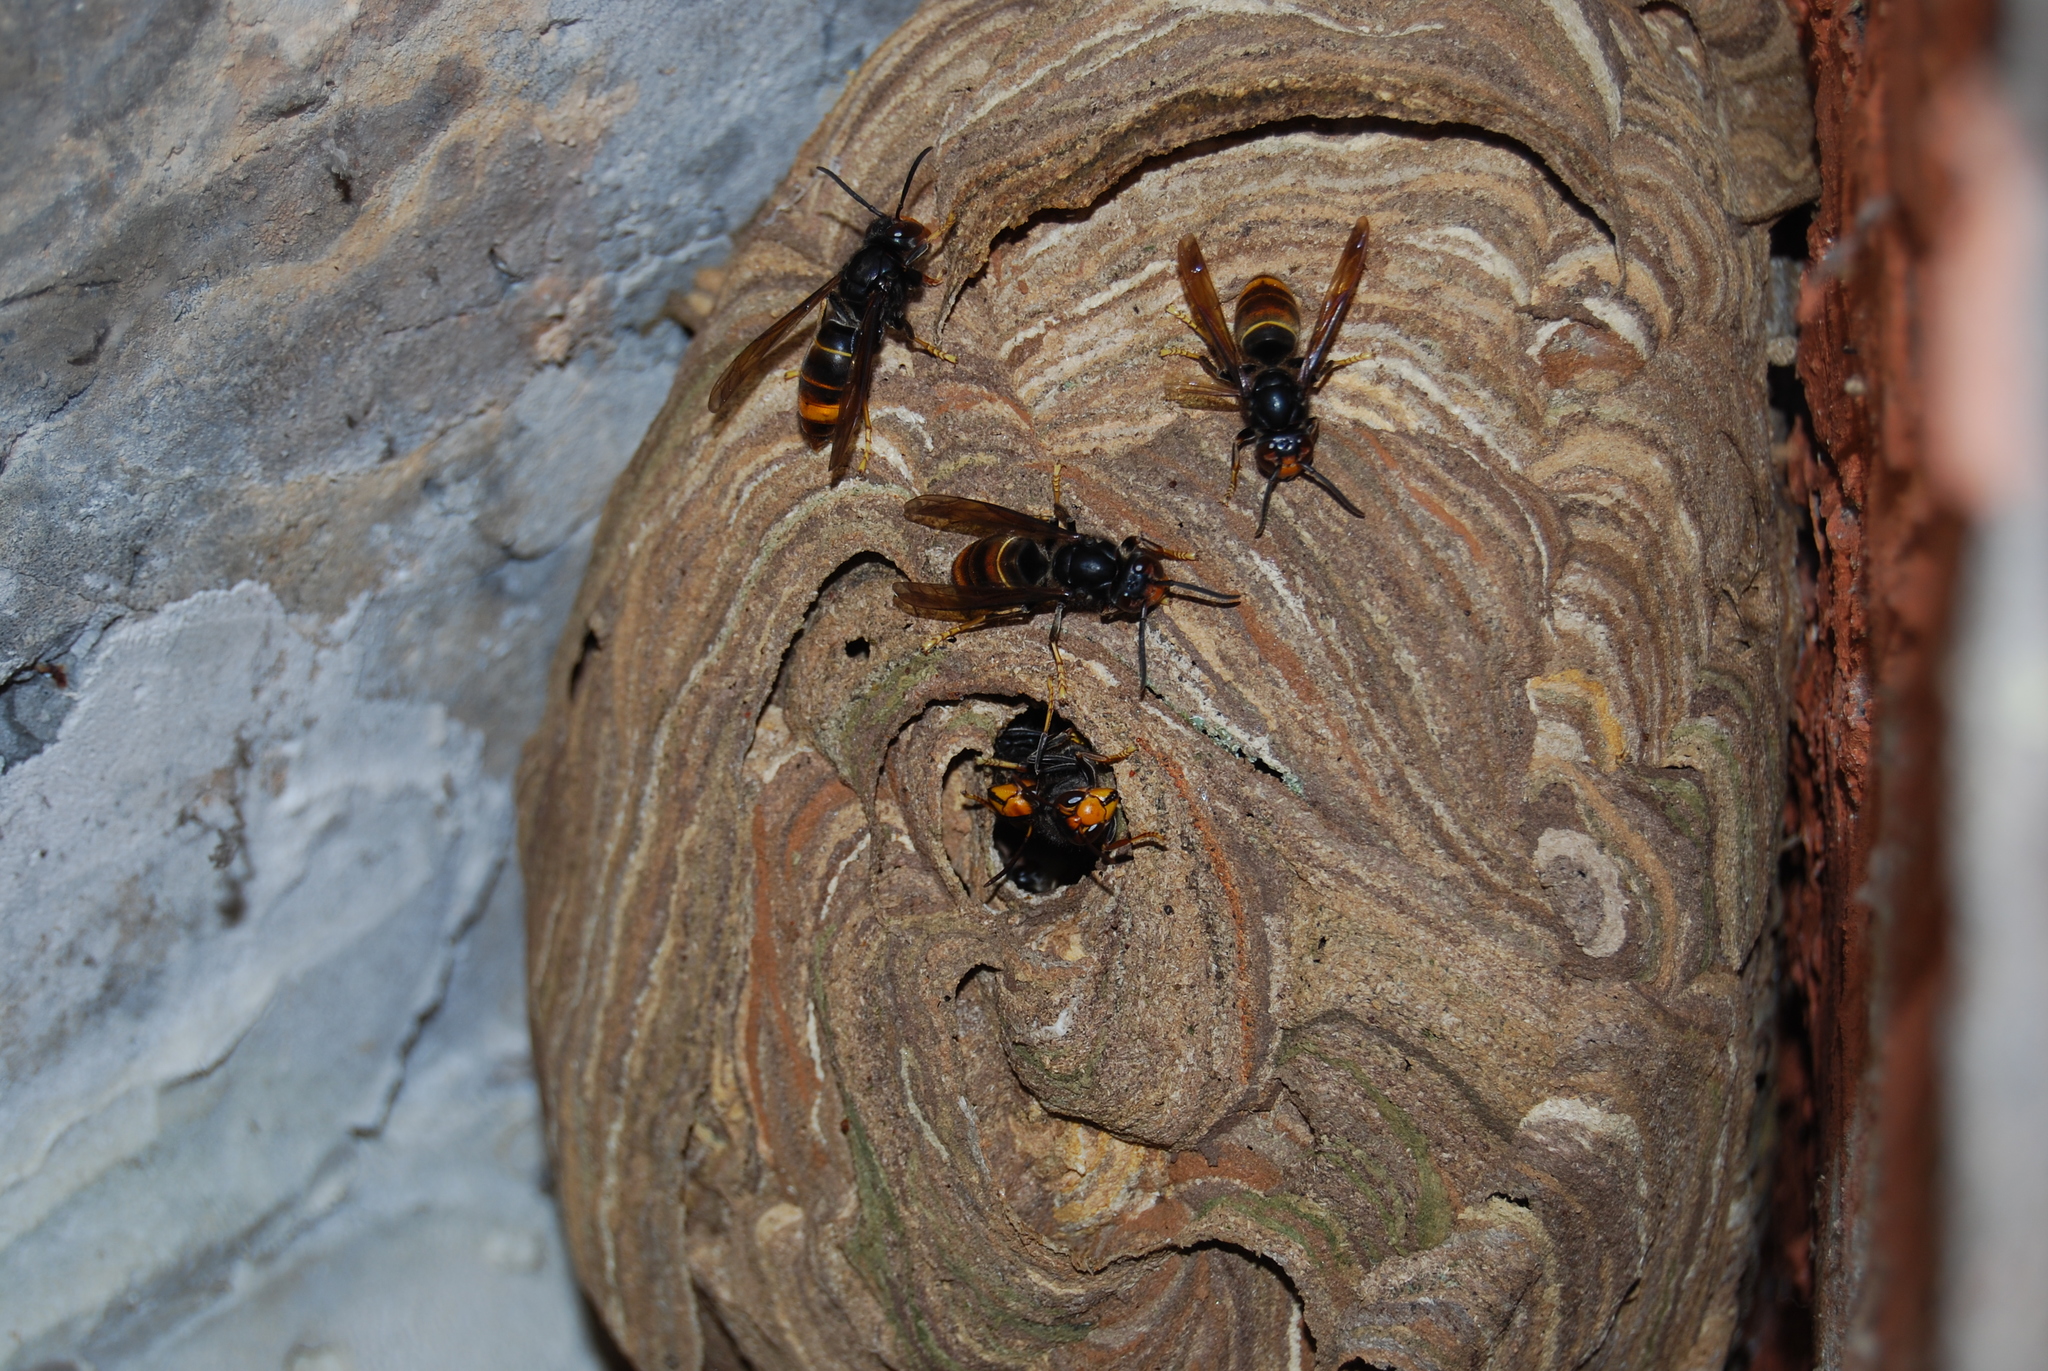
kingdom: Animalia
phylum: Arthropoda
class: Insecta
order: Hymenoptera
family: Vespidae
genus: Vespa
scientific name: Vespa velutina
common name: Asian hornet
